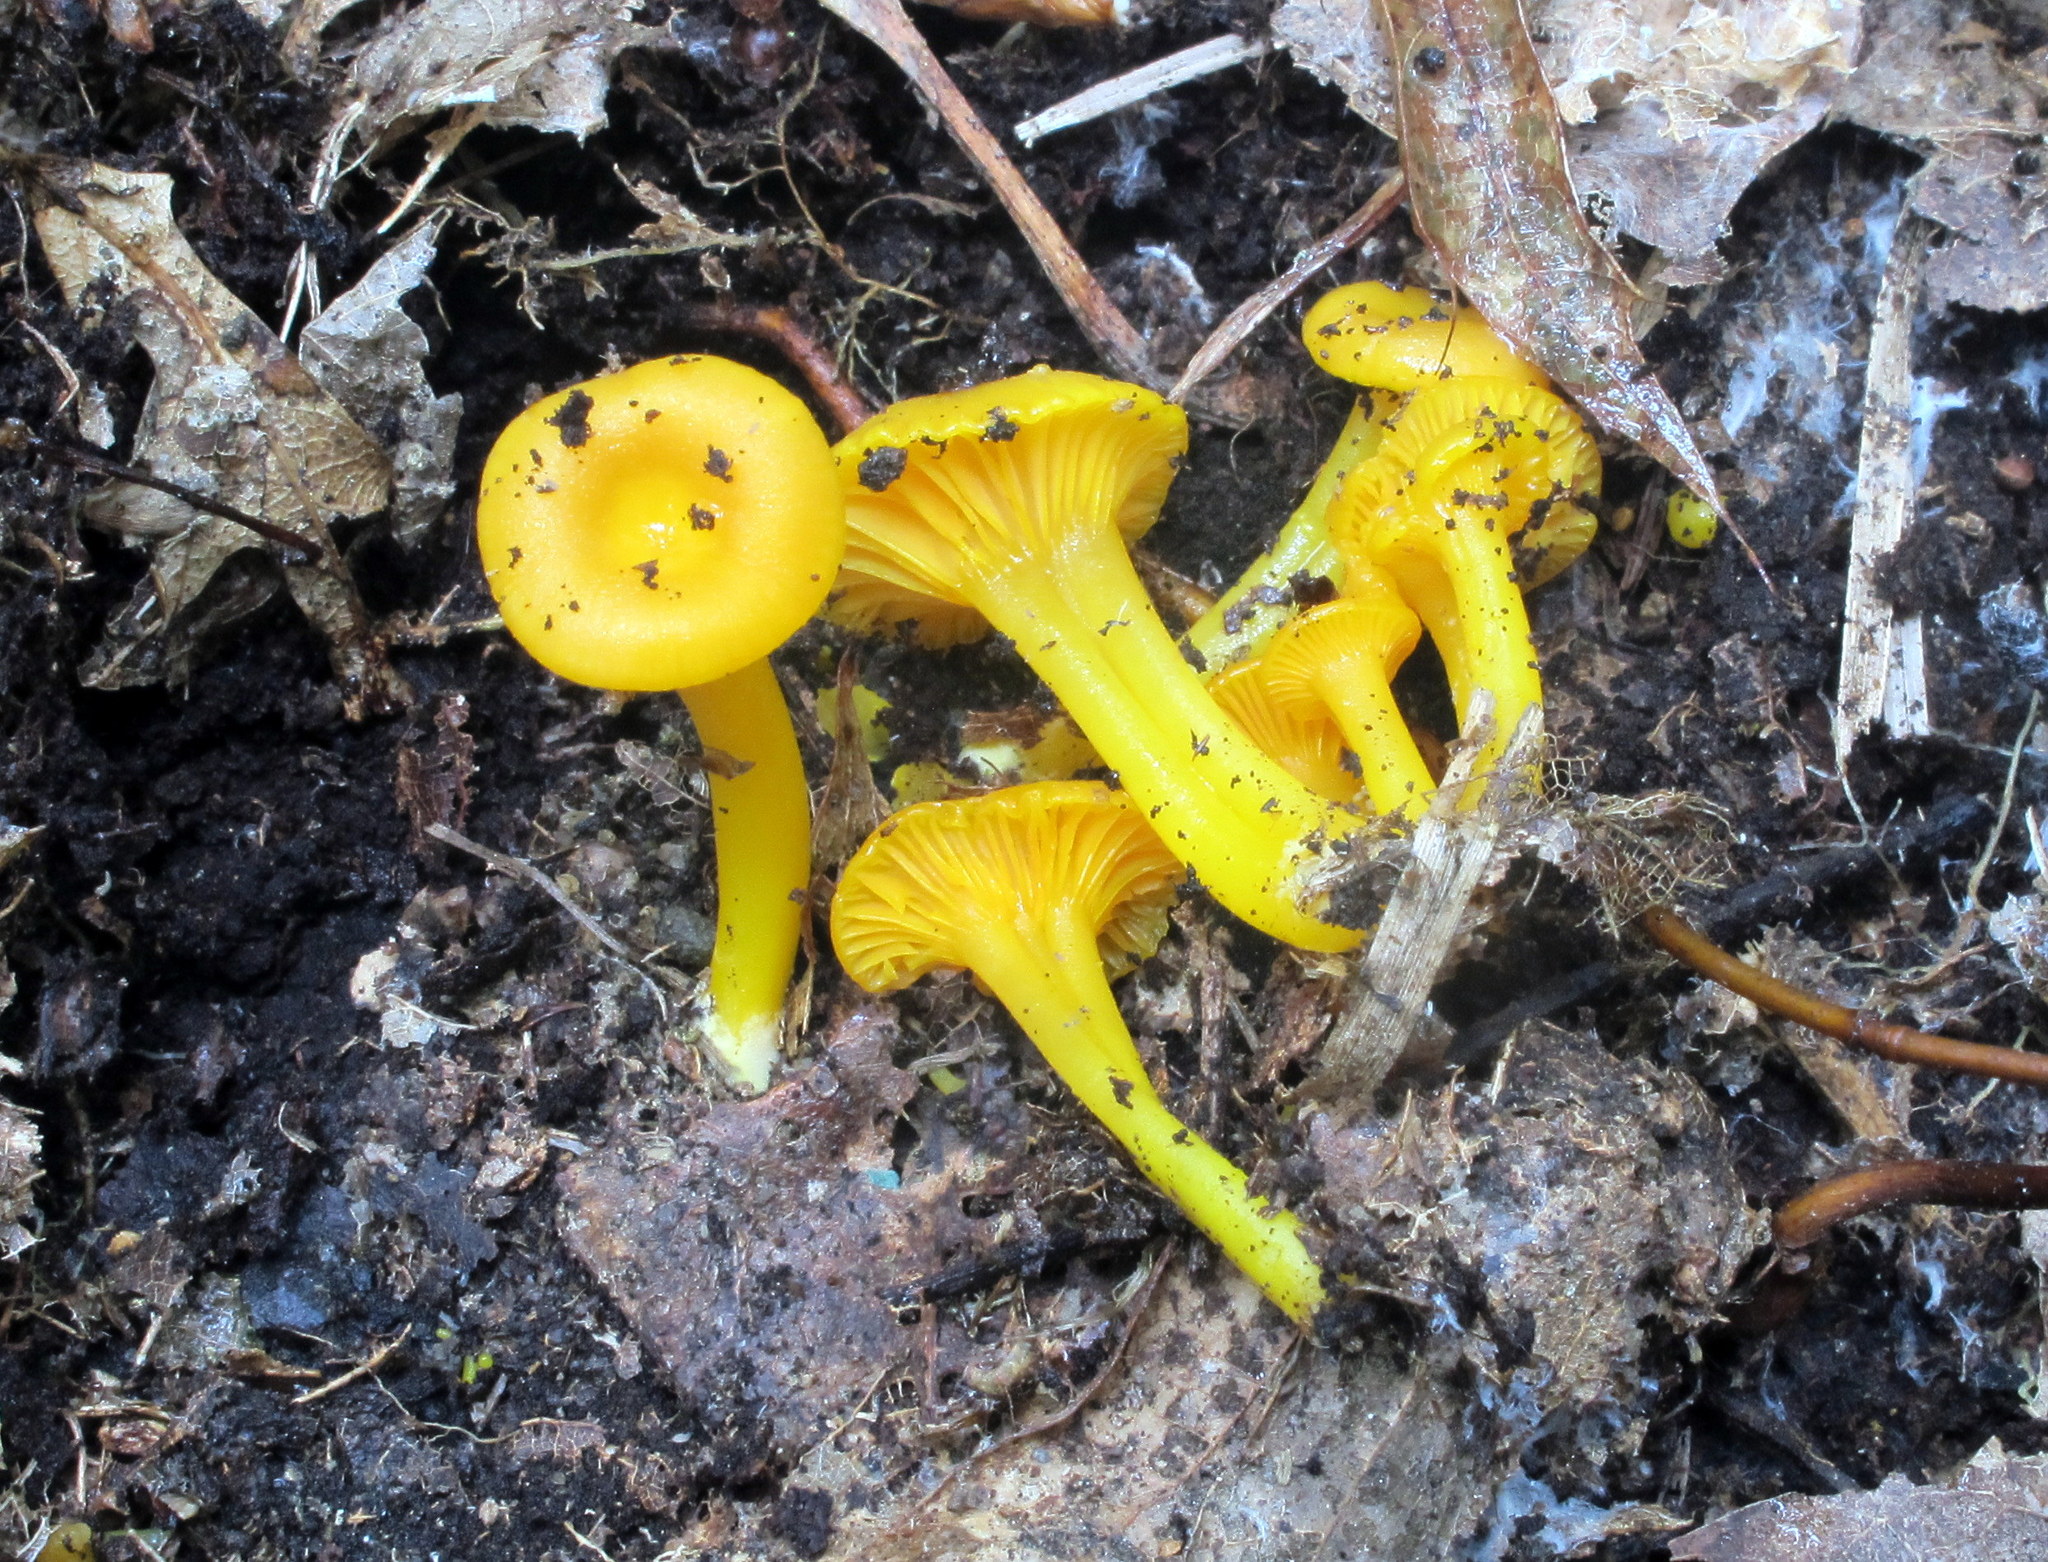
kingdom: Fungi
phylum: Basidiomycota
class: Agaricomycetes
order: Agaricales
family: Hygrophoraceae
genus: Gloioxanthomyces
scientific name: Gloioxanthomyces nitidus
